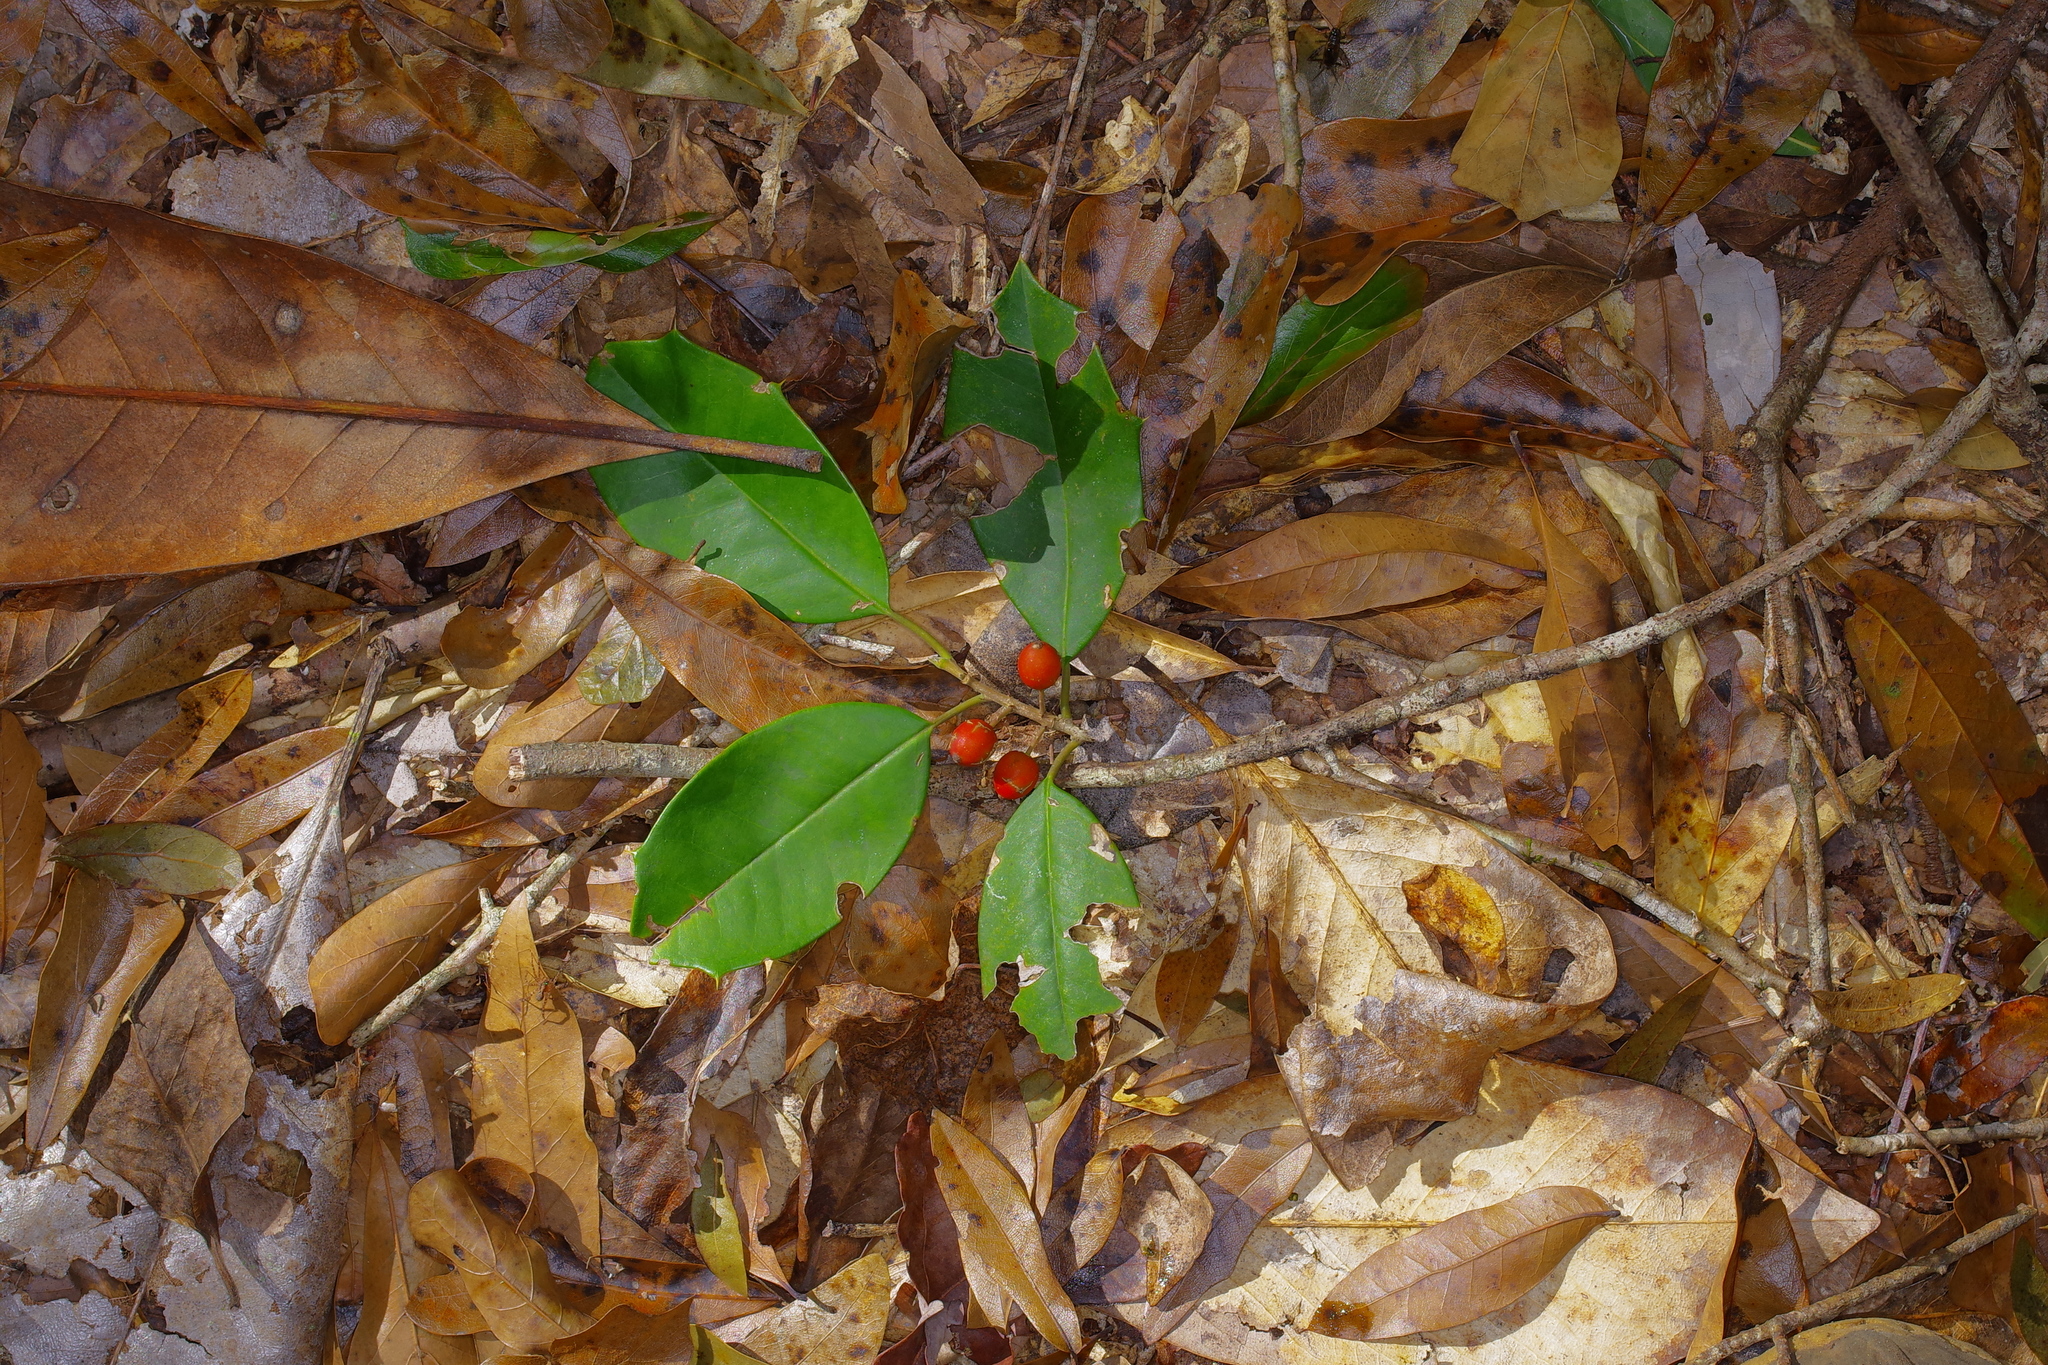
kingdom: Plantae
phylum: Tracheophyta
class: Magnoliopsida
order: Aquifoliales
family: Aquifoliaceae
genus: Ilex
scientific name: Ilex opaca
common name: American holly
